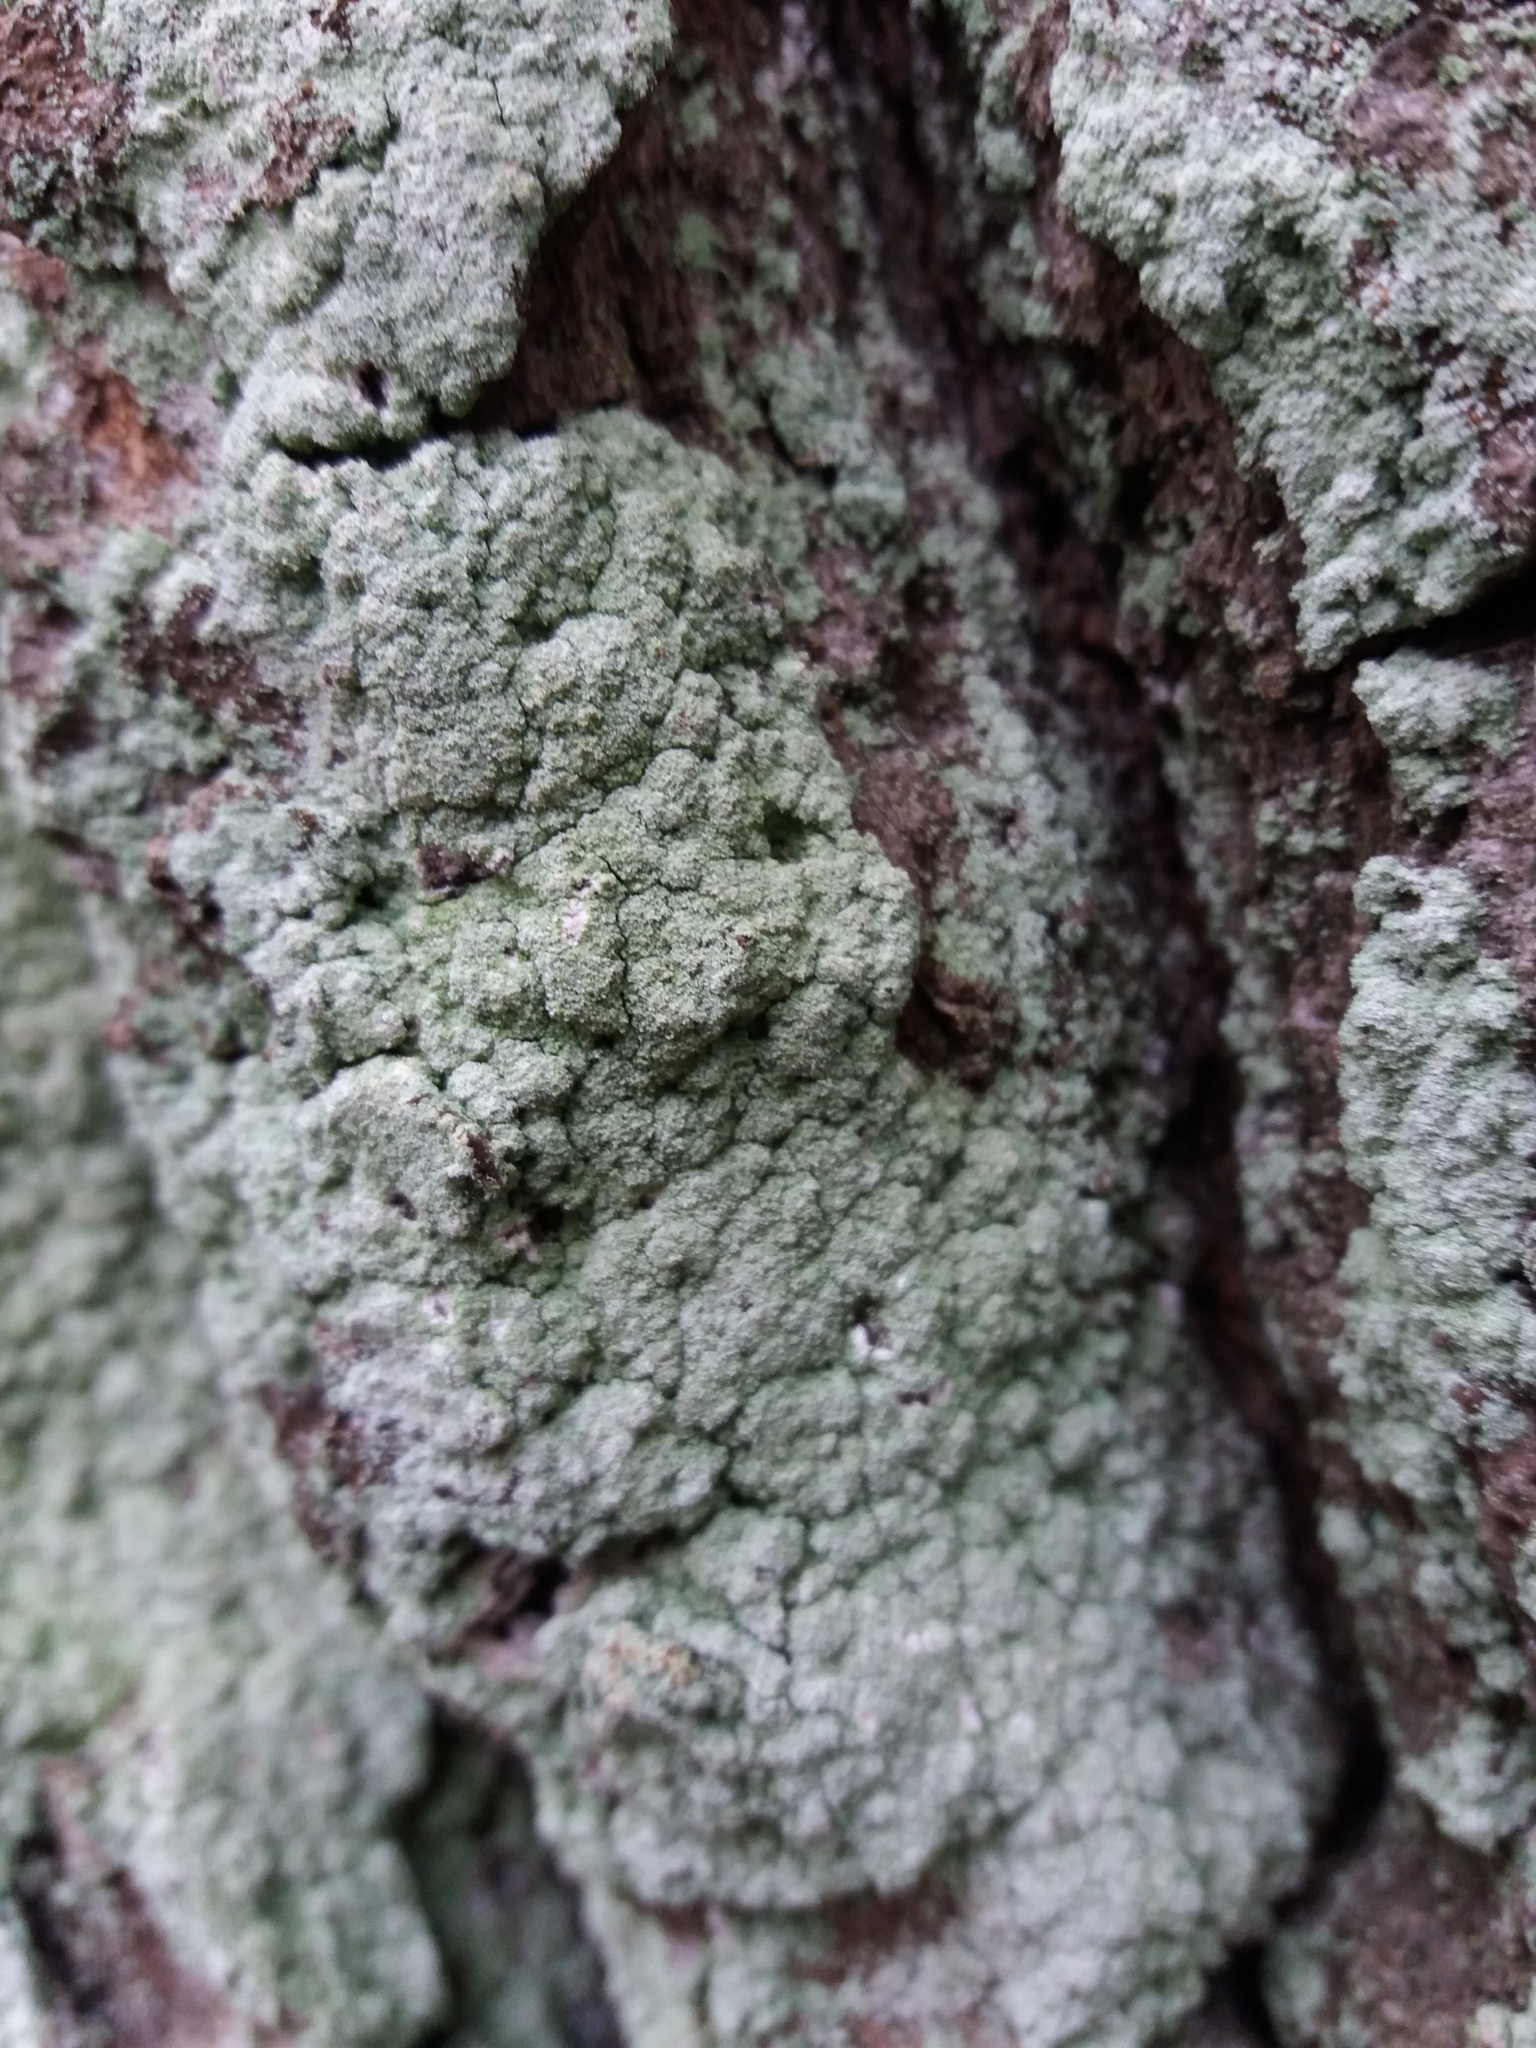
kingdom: Fungi
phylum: Ascomycota
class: Lecanoromycetes
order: Lecanorales
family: Stereocaulaceae
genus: Lepraria
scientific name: Lepraria
